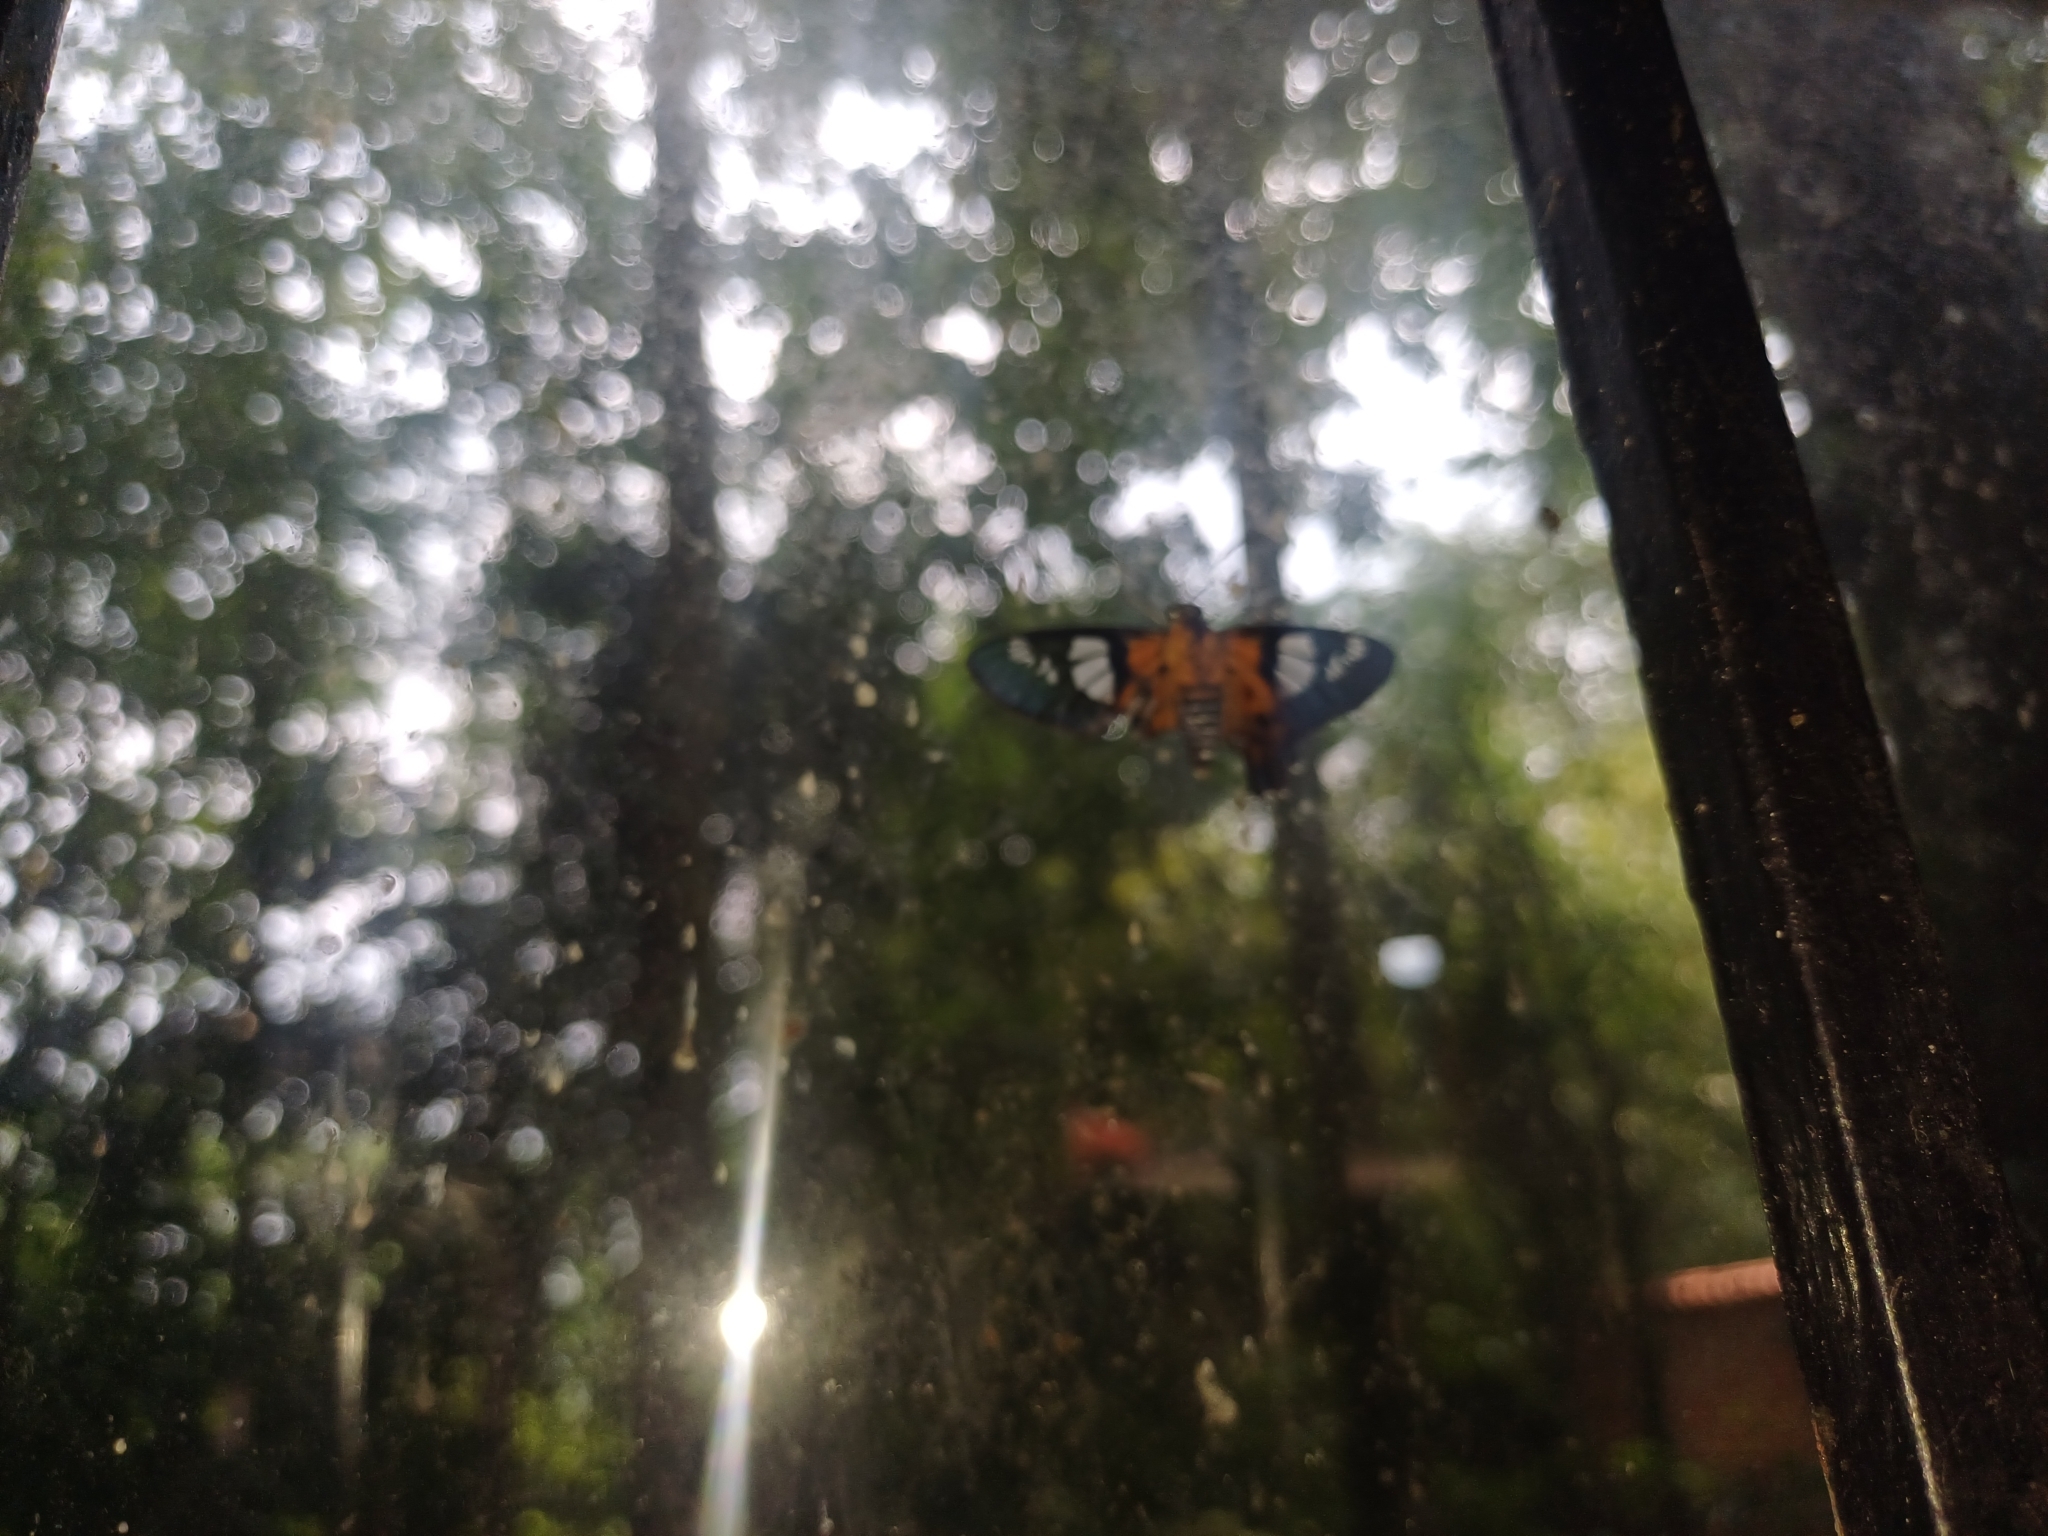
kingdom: Animalia
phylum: Arthropoda
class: Insecta
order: Lepidoptera
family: Hesperiidae
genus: Myscelus
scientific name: Myscelus pardalina
